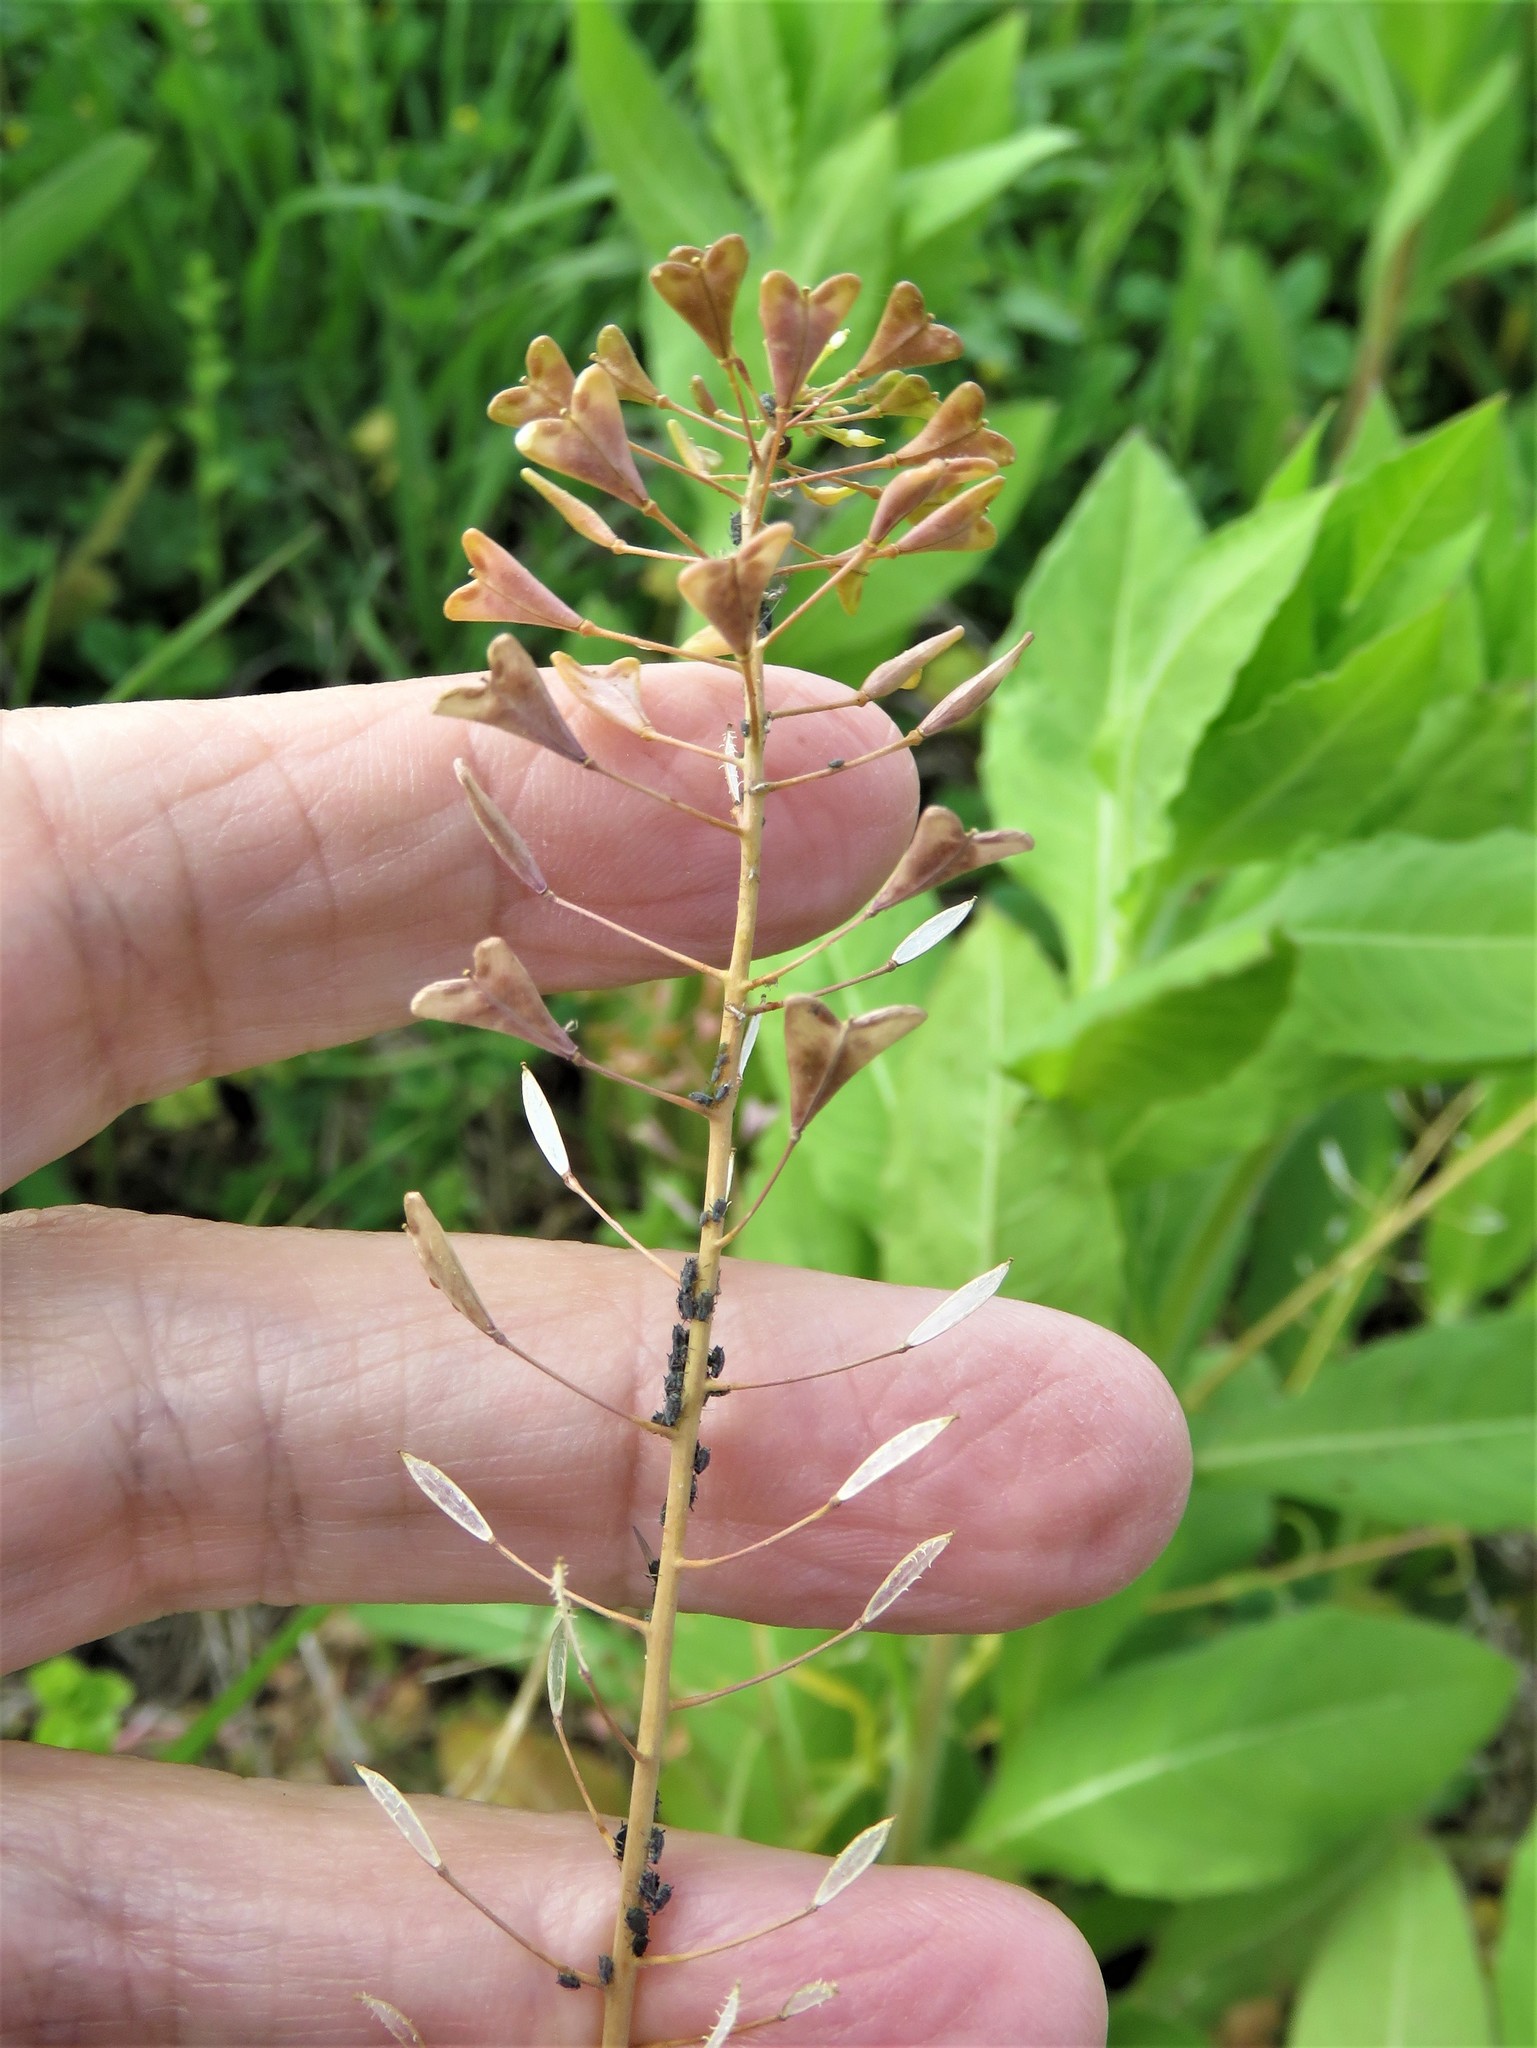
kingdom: Plantae
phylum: Tracheophyta
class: Magnoliopsida
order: Brassicales
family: Brassicaceae
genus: Capsella
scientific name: Capsella bursa-pastoris
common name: Shepherd's purse
